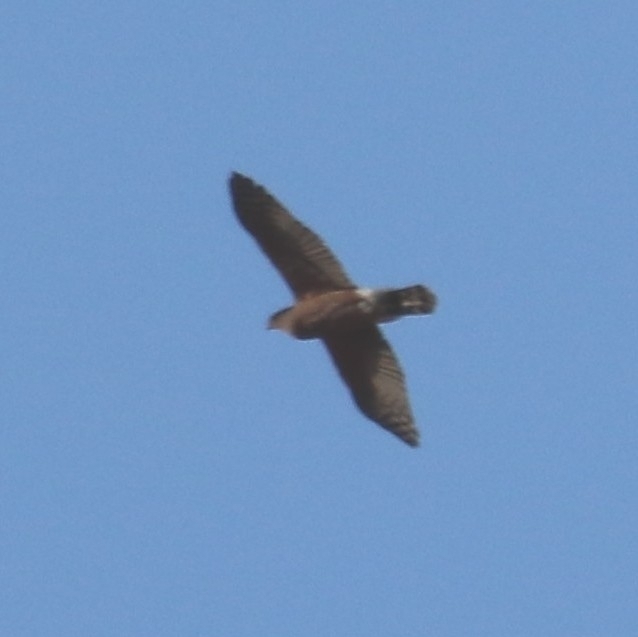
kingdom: Animalia
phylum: Chordata
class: Aves
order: Accipitriformes
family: Accipitridae
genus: Accipiter
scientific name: Accipiter cooperii
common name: Cooper's hawk
